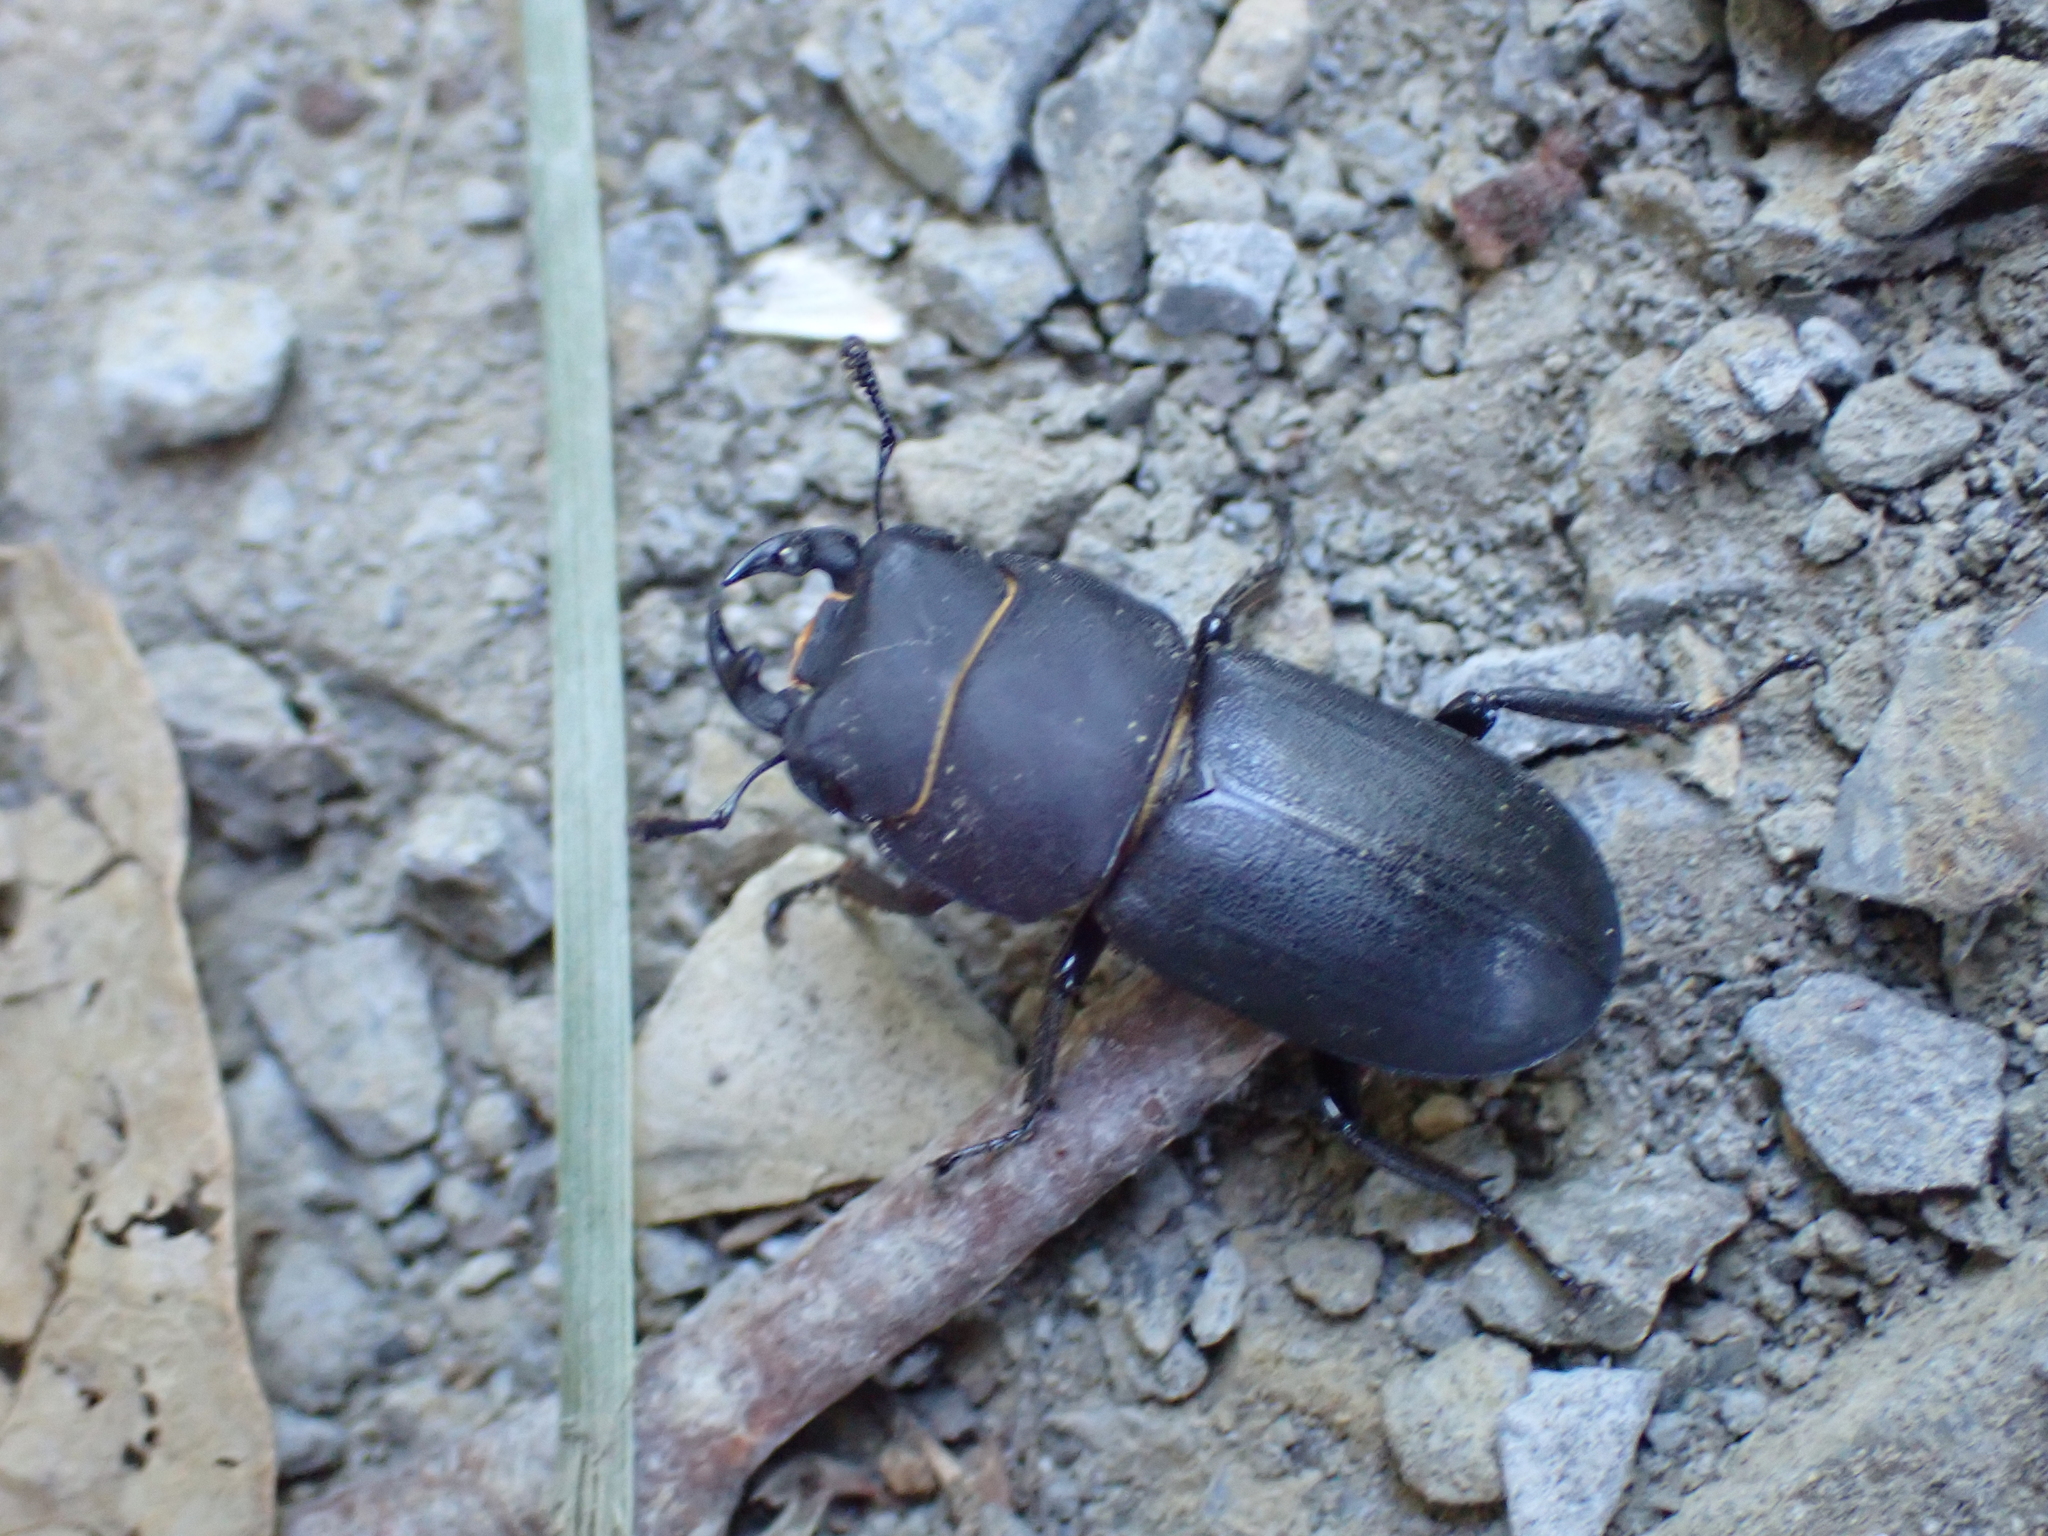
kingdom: Animalia
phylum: Arthropoda
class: Insecta
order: Coleoptera
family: Lucanidae
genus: Dorcus
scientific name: Dorcus parallelipipedus
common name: Lesser stag beetle
